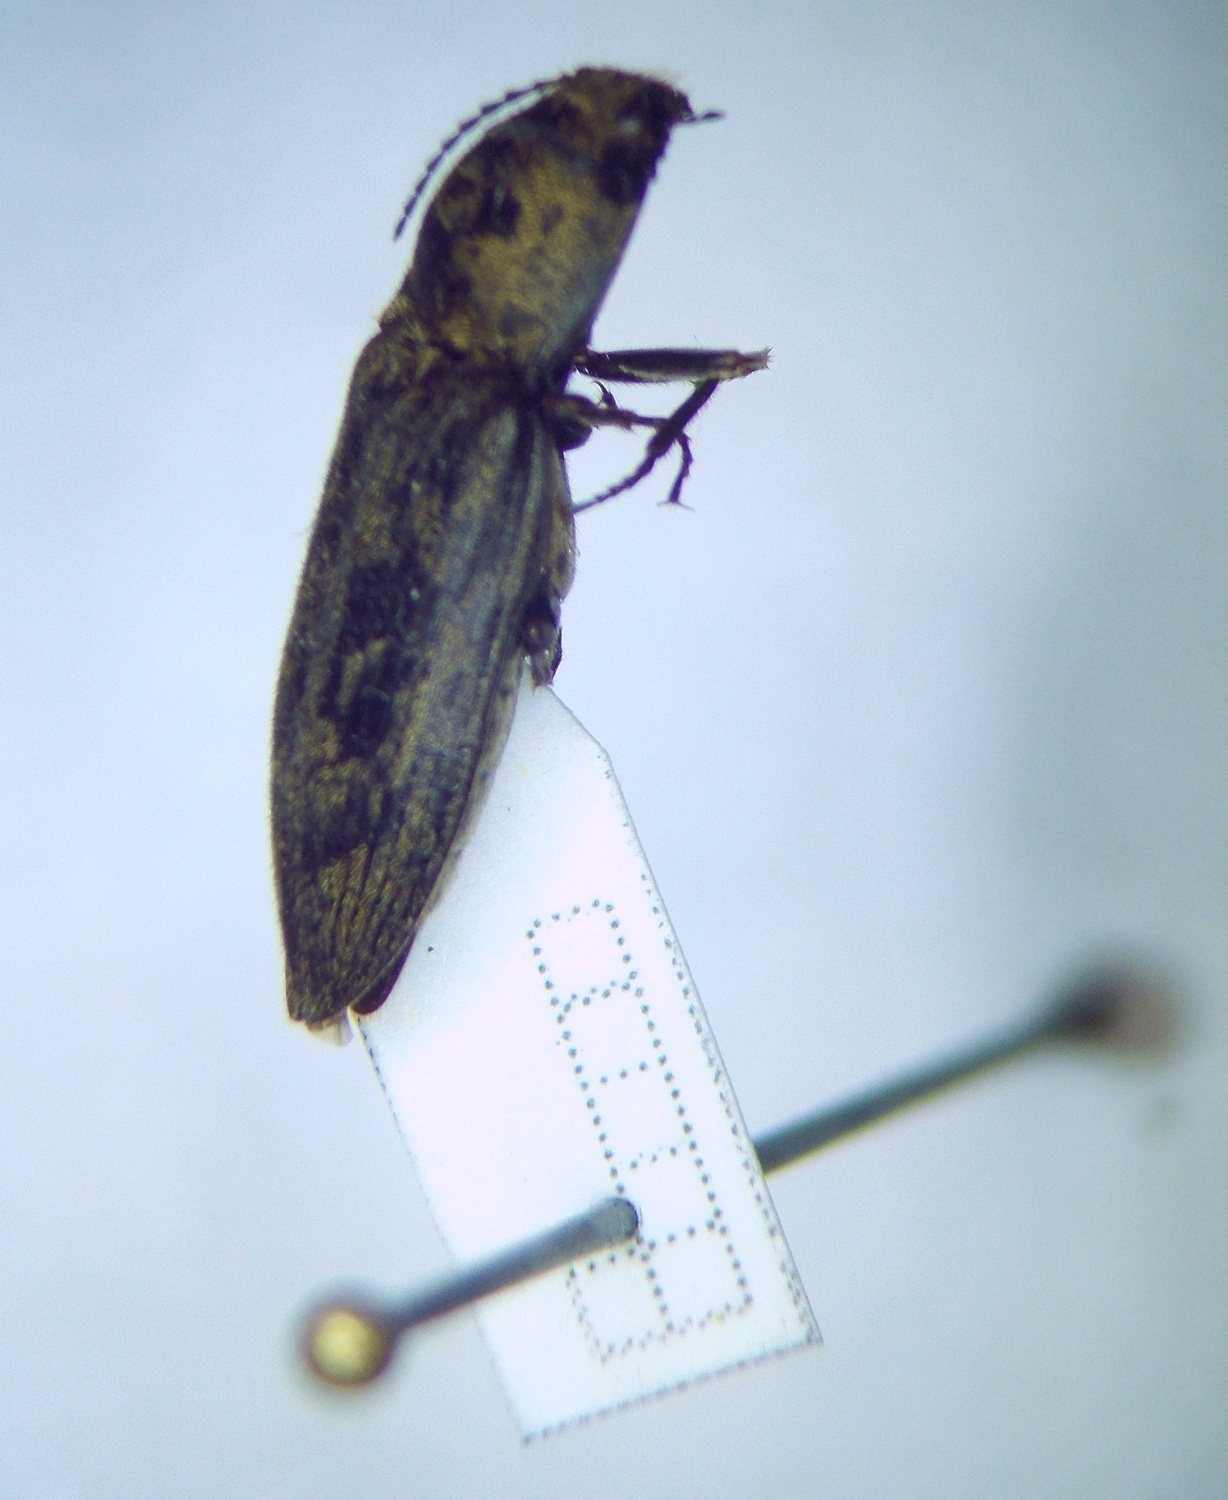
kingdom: Animalia
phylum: Arthropoda
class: Insecta
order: Coleoptera
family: Elateridae
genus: Prosternon
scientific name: Prosternon tessellatum
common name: Chequered click beetle
